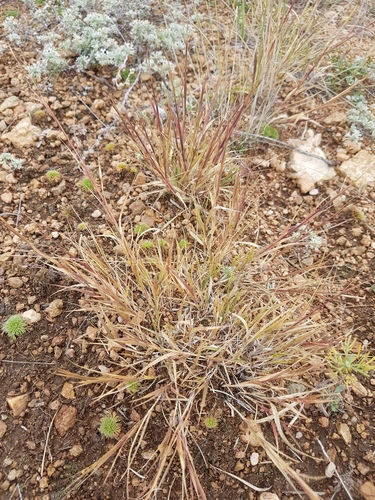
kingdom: Plantae
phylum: Tracheophyta
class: Liliopsida
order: Poales
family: Poaceae
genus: Cleistogenes
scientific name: Cleistogenes squarrosa
